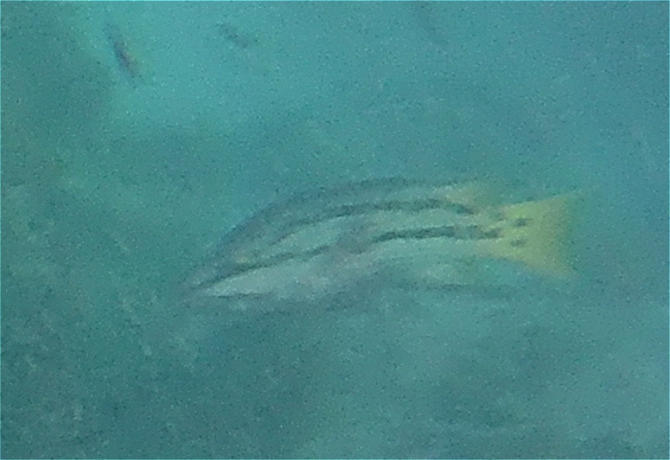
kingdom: Animalia
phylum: Chordata
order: Perciformes
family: Labridae
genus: Bodianus
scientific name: Bodianus diplotaenia
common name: Mexican hogfish
